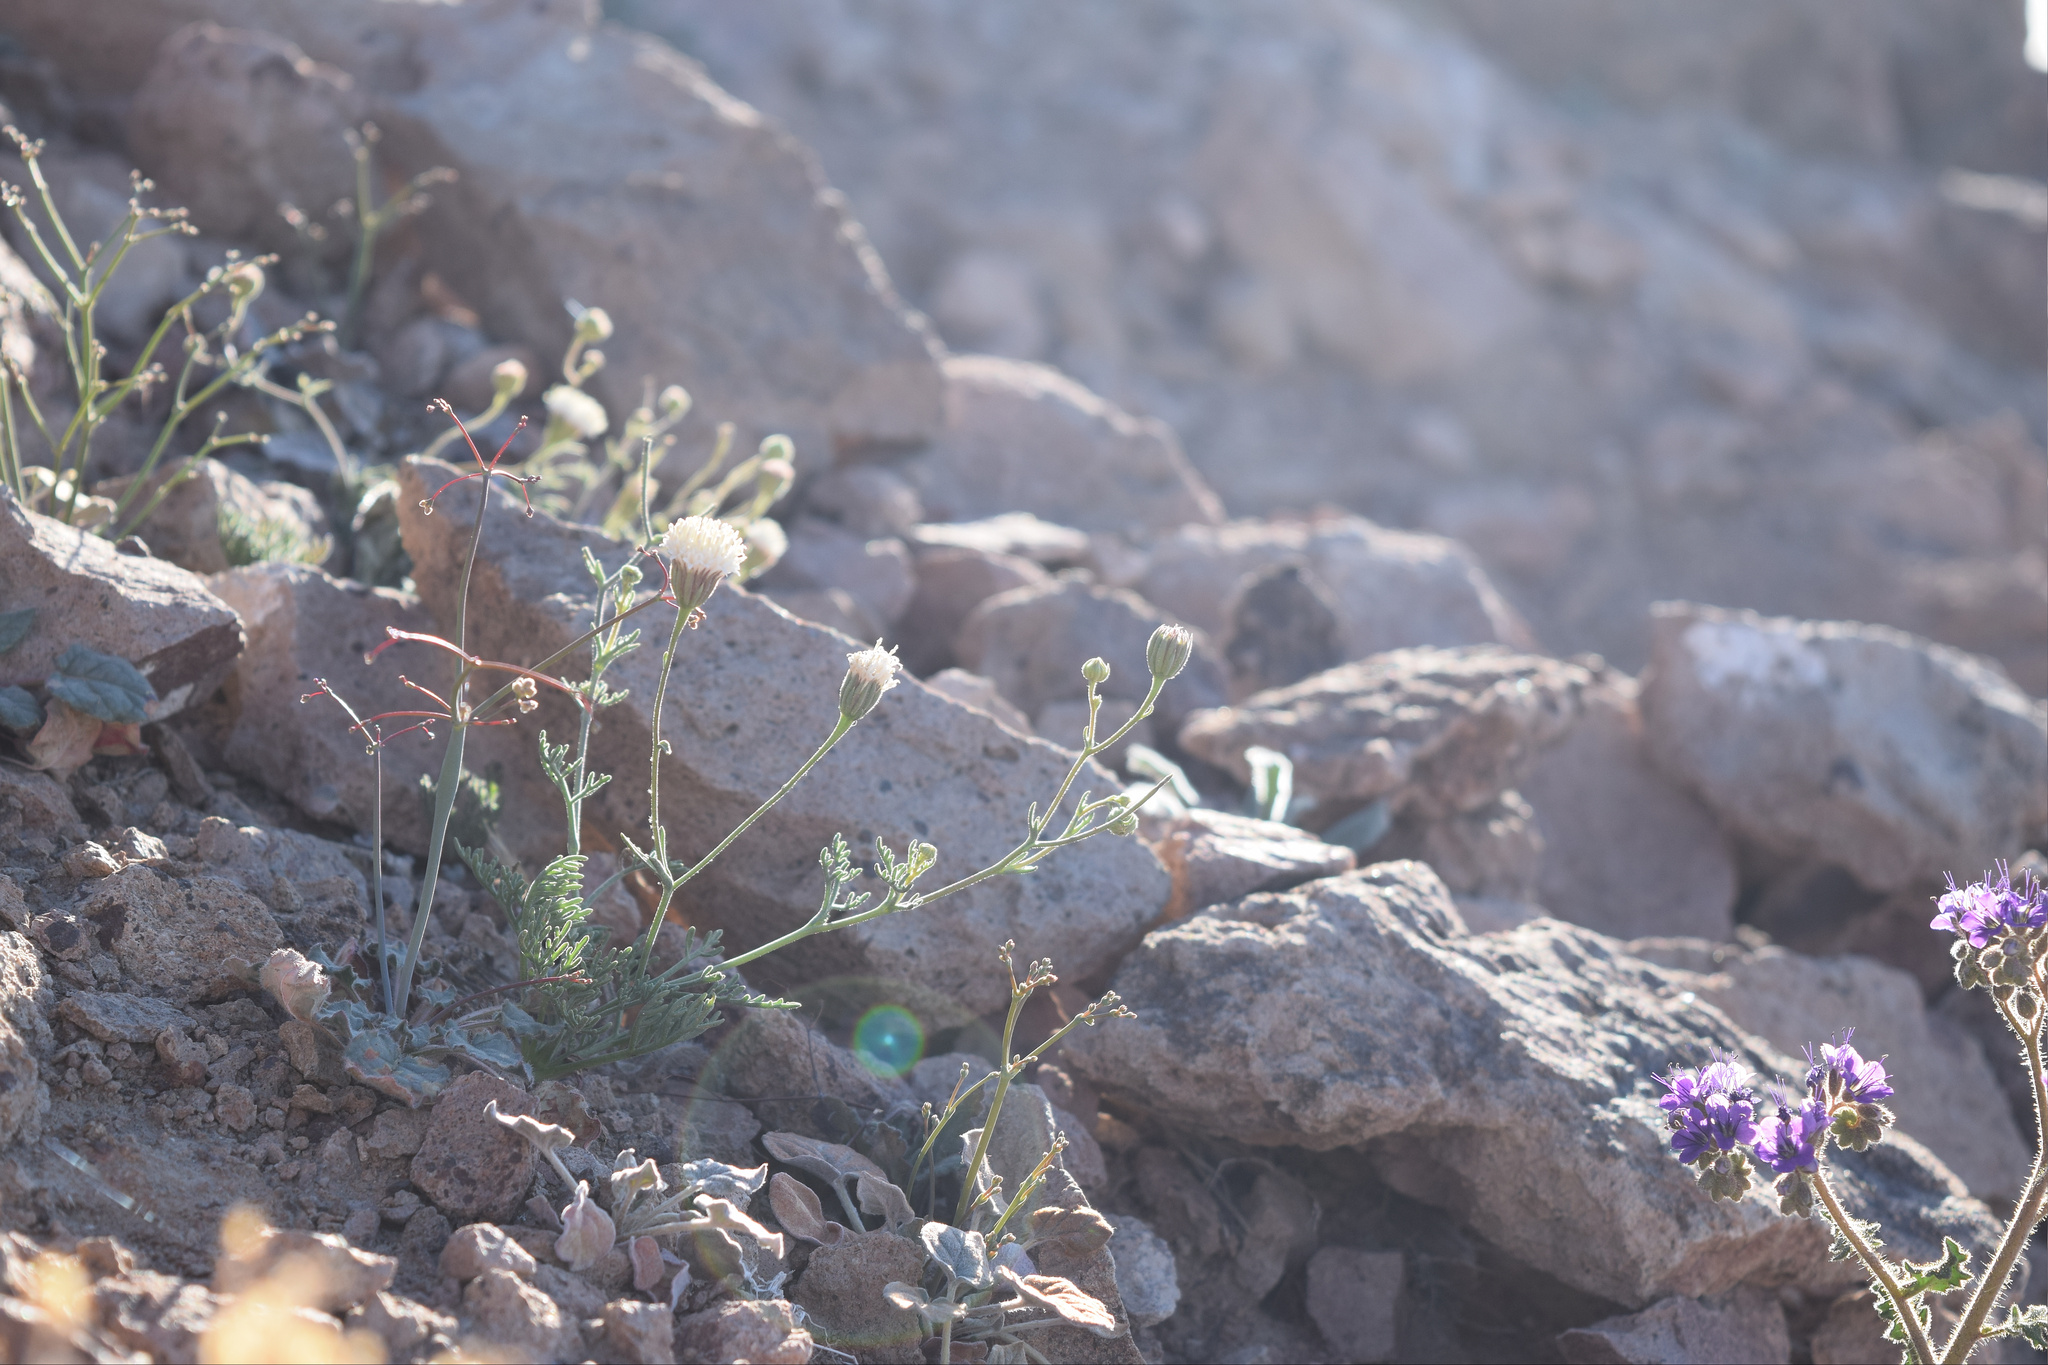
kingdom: Plantae
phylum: Tracheophyta
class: Magnoliopsida
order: Asterales
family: Asteraceae
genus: Chaenactis
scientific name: Chaenactis carphoclinia
